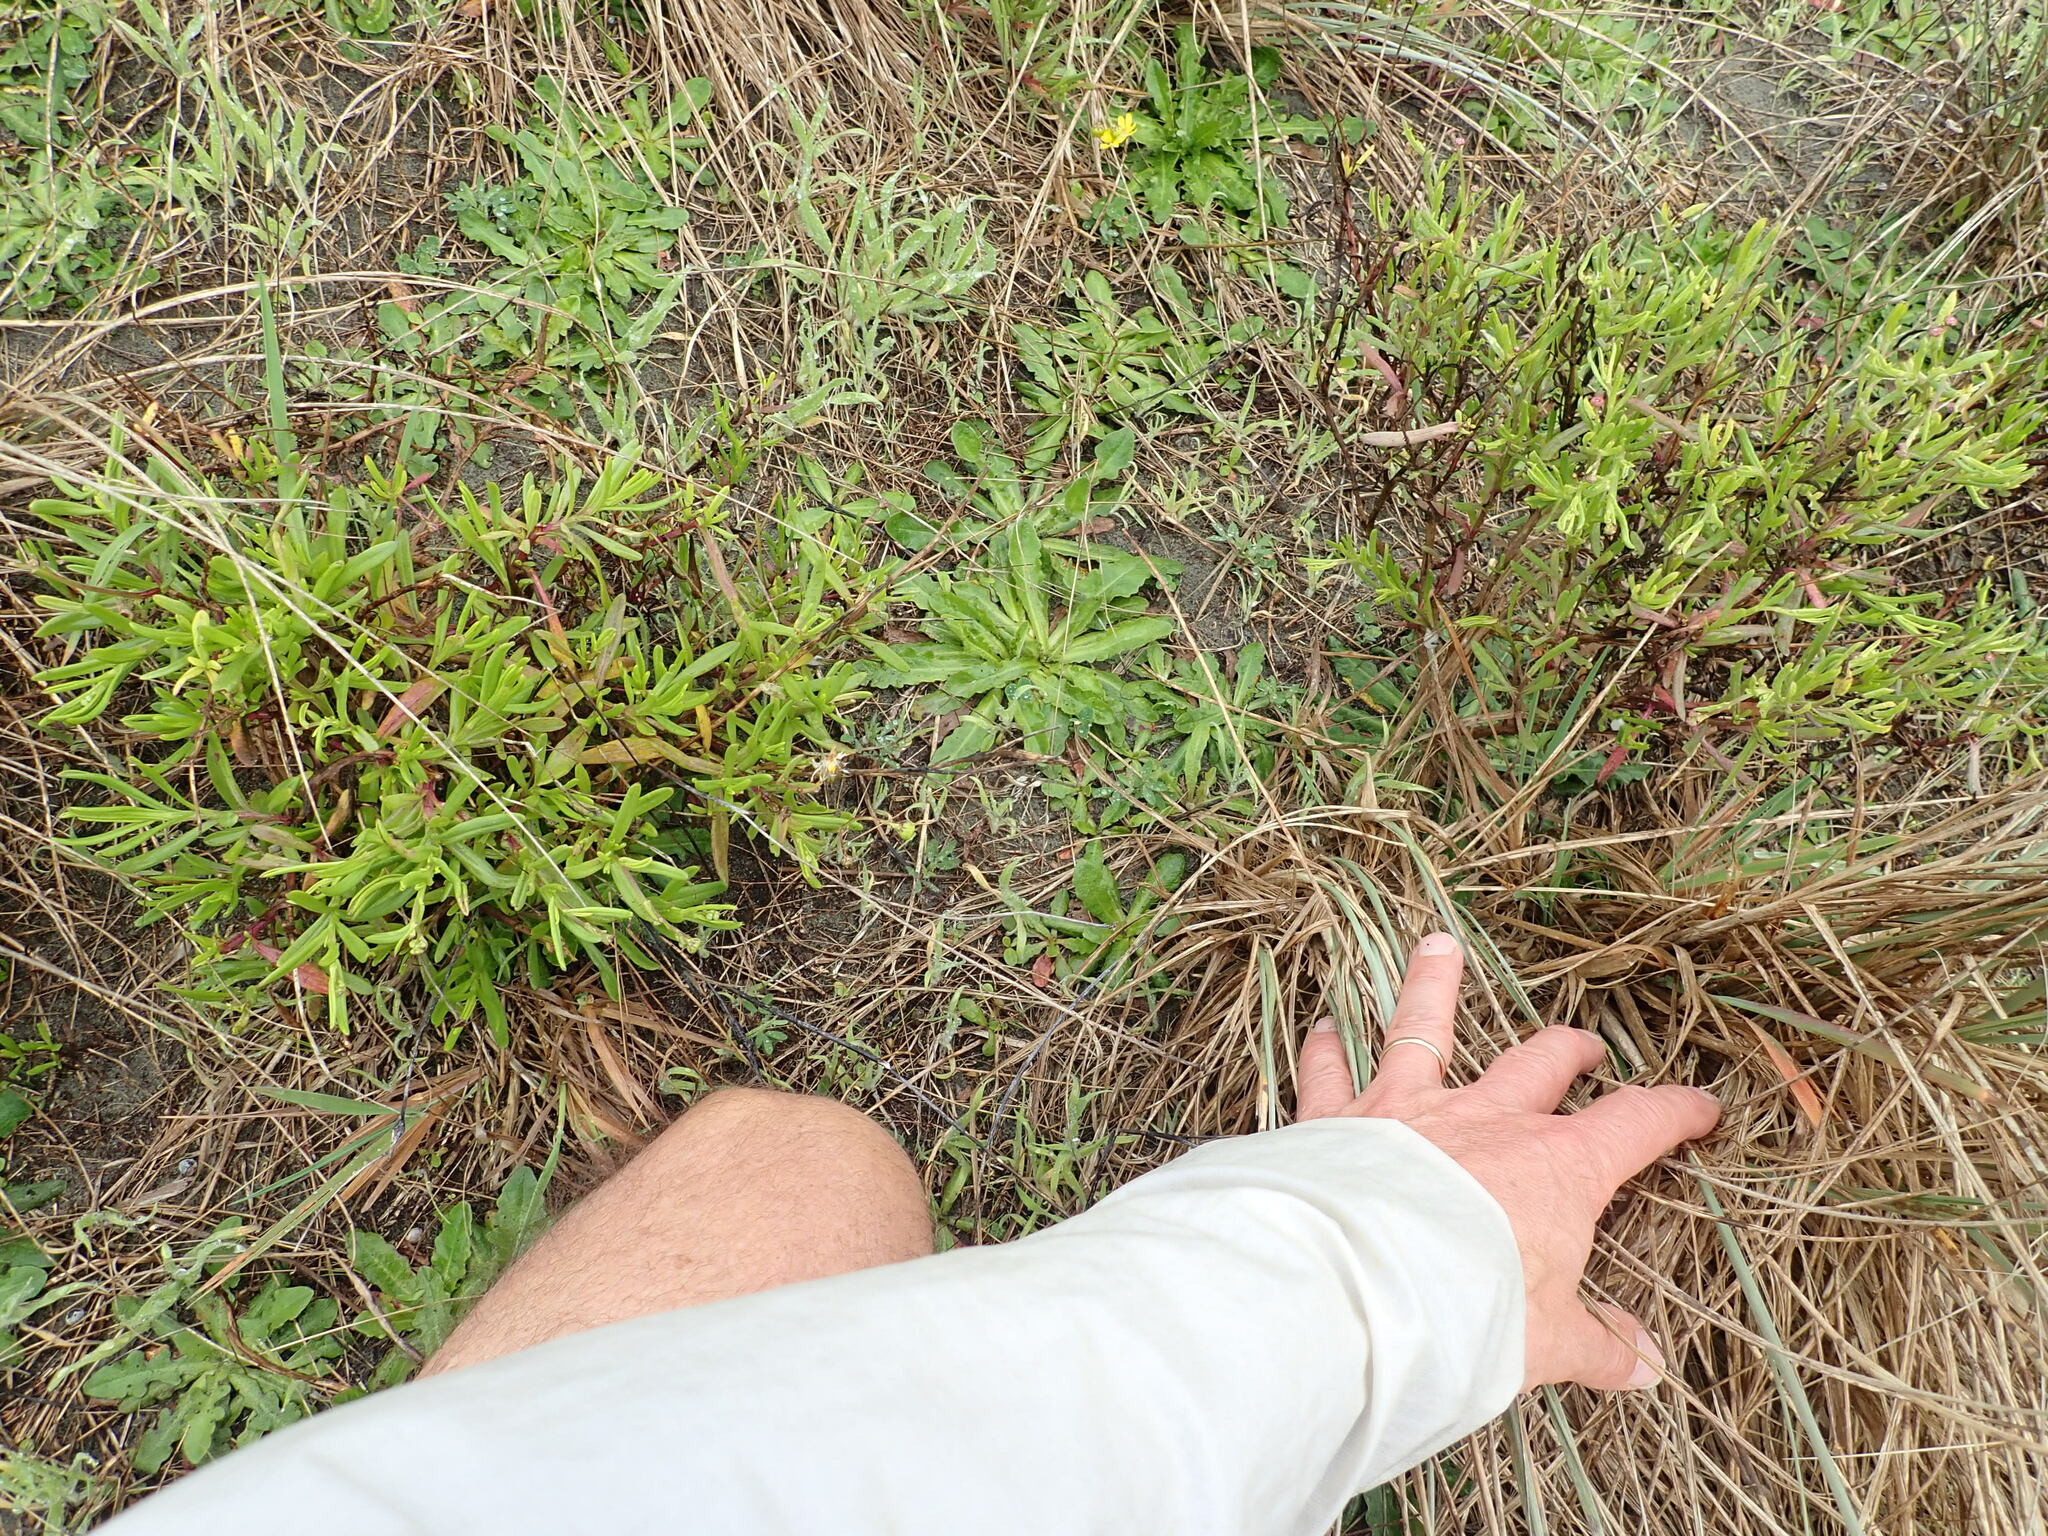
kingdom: Plantae
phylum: Tracheophyta
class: Magnoliopsida
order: Asterales
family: Asteraceae
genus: Senecio
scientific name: Senecio skirrhodon
